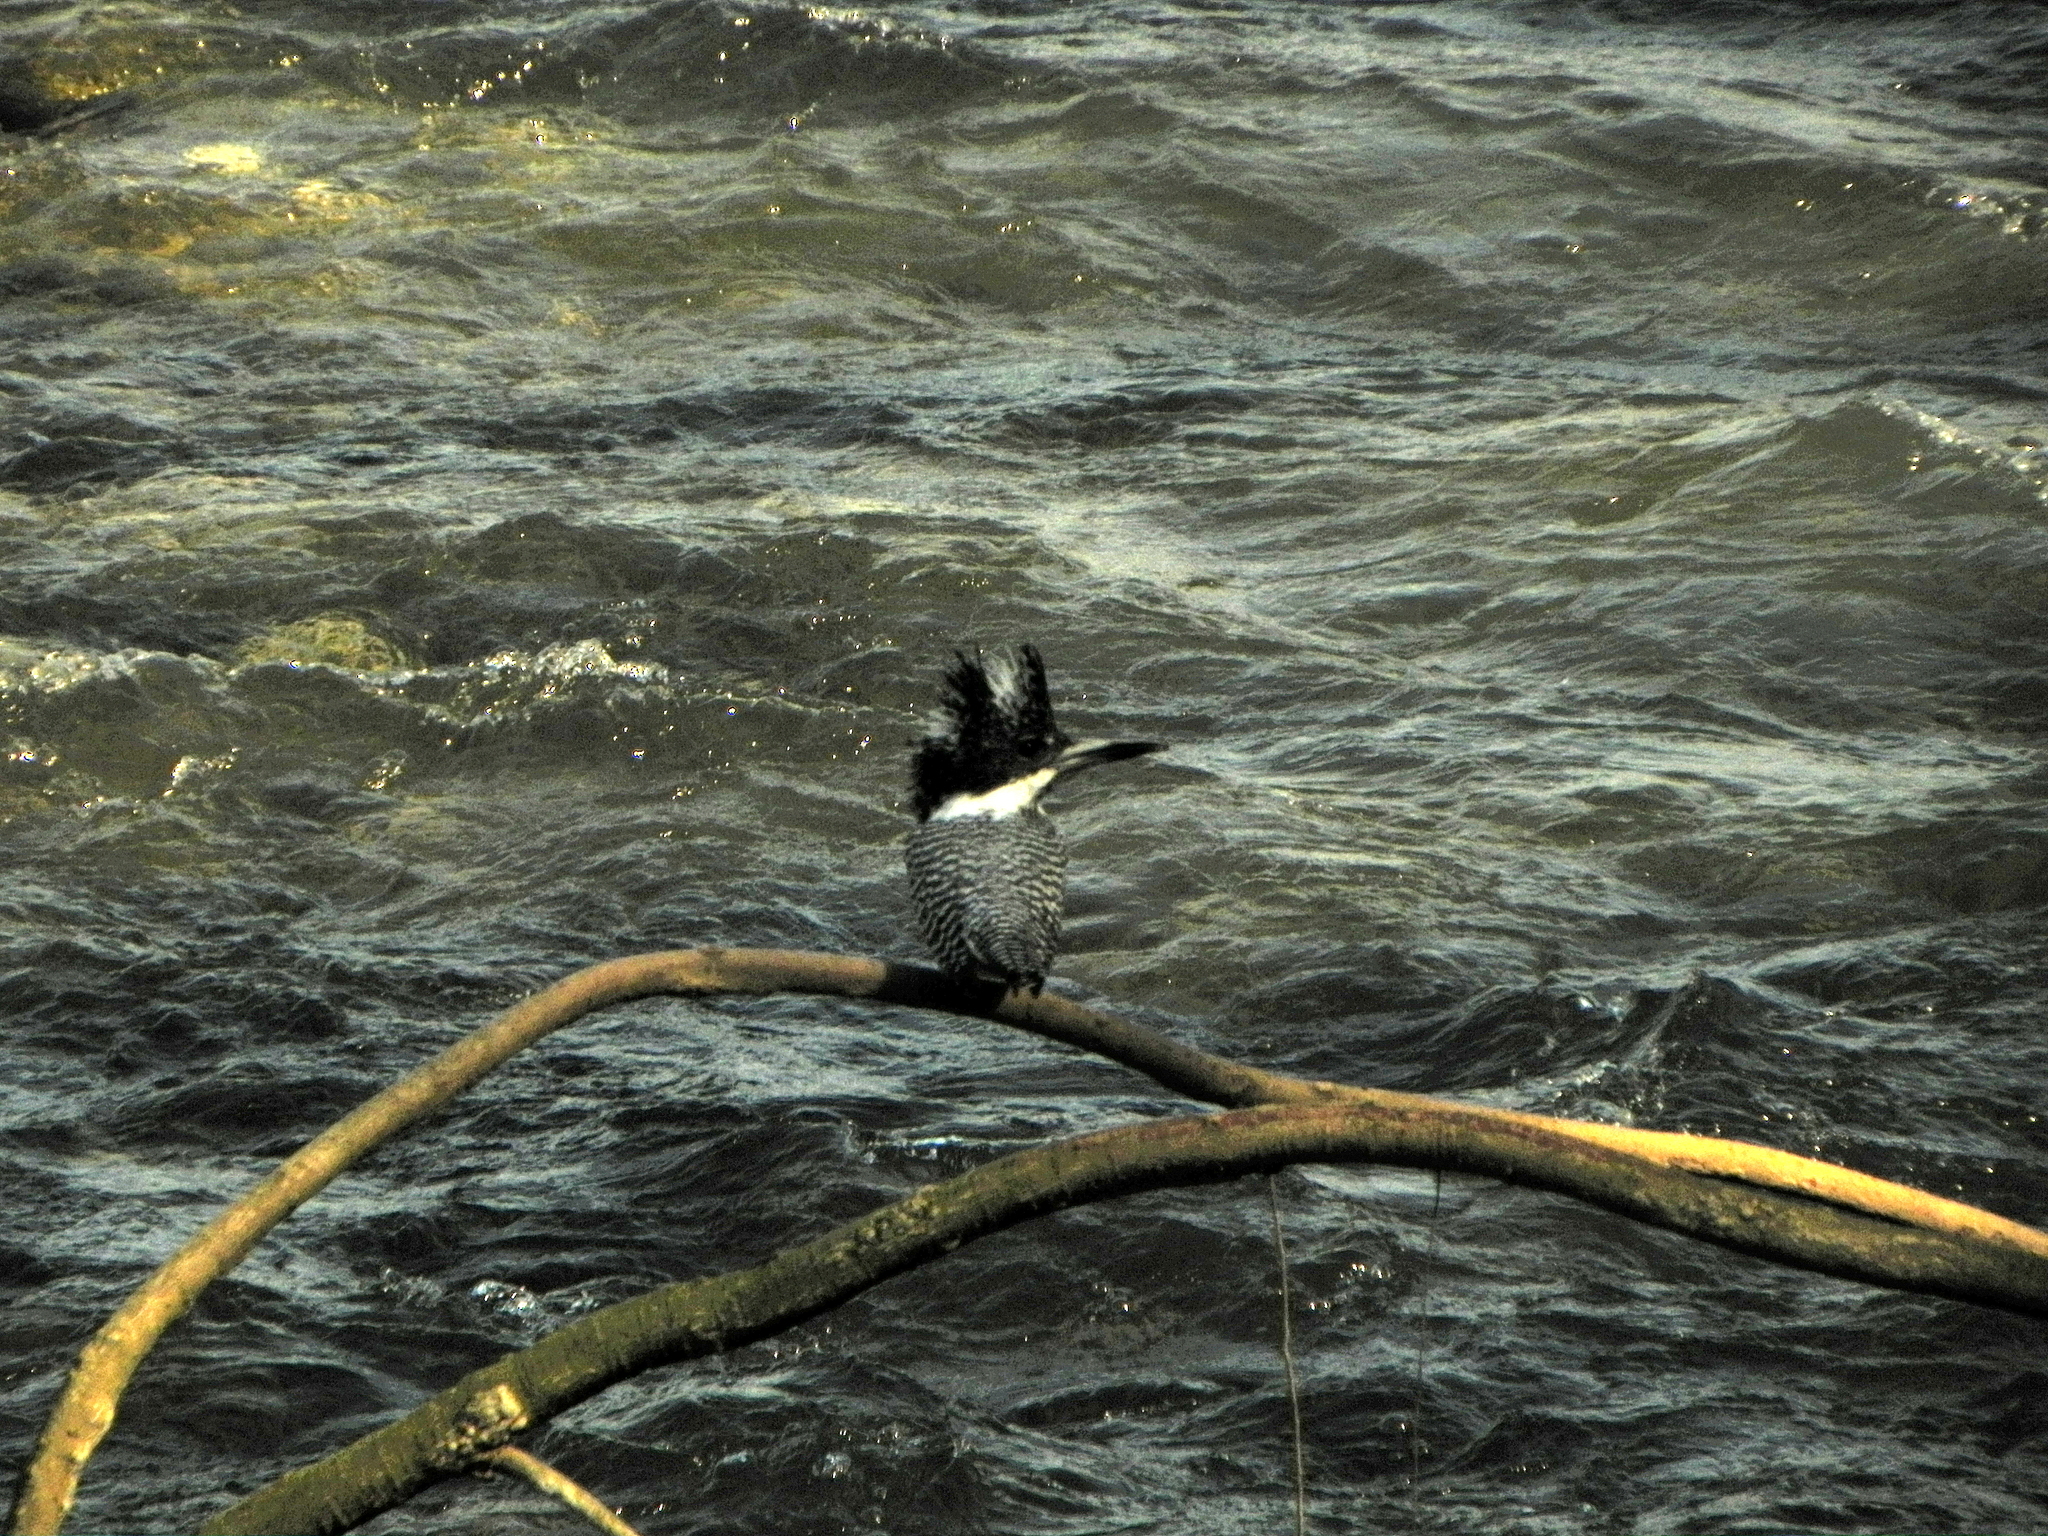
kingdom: Animalia
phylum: Chordata
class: Aves
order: Coraciiformes
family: Alcedinidae
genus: Megaceryle
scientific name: Megaceryle lugubris
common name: Crested kingfisher
